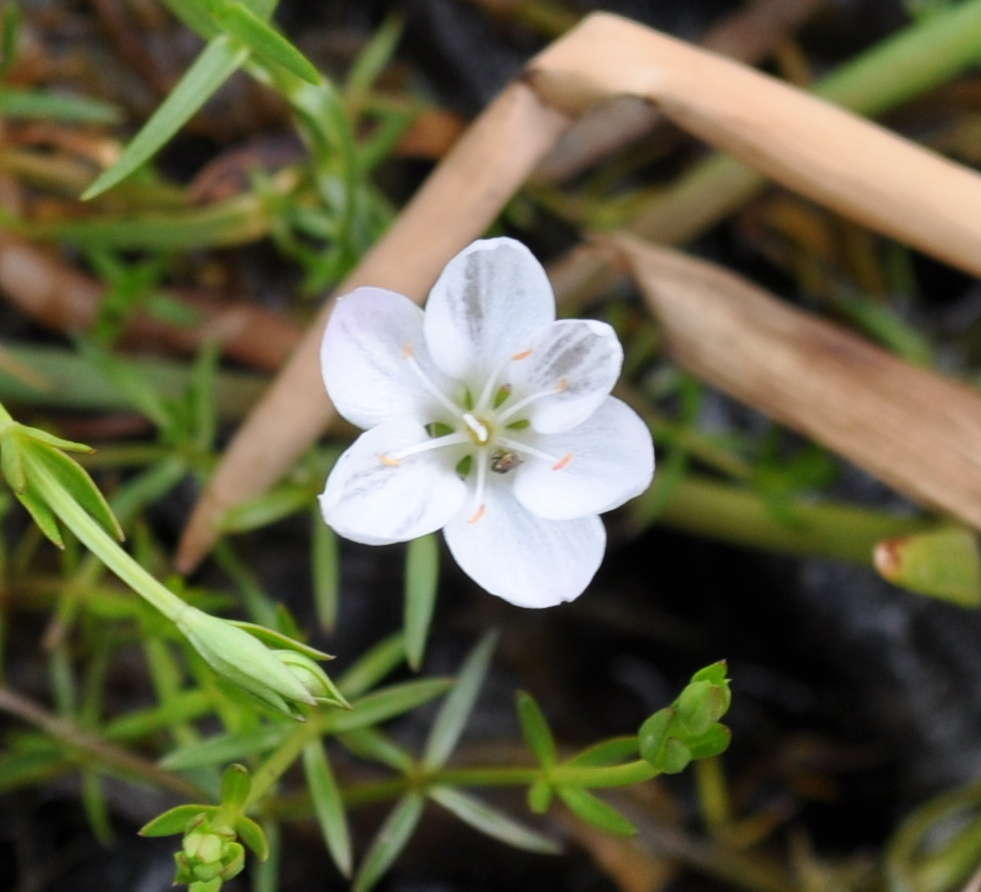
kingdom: Plantae
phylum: Tracheophyta
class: Magnoliopsida
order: Caryophyllales
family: Montiaceae
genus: Montia
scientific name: Montia australasica
